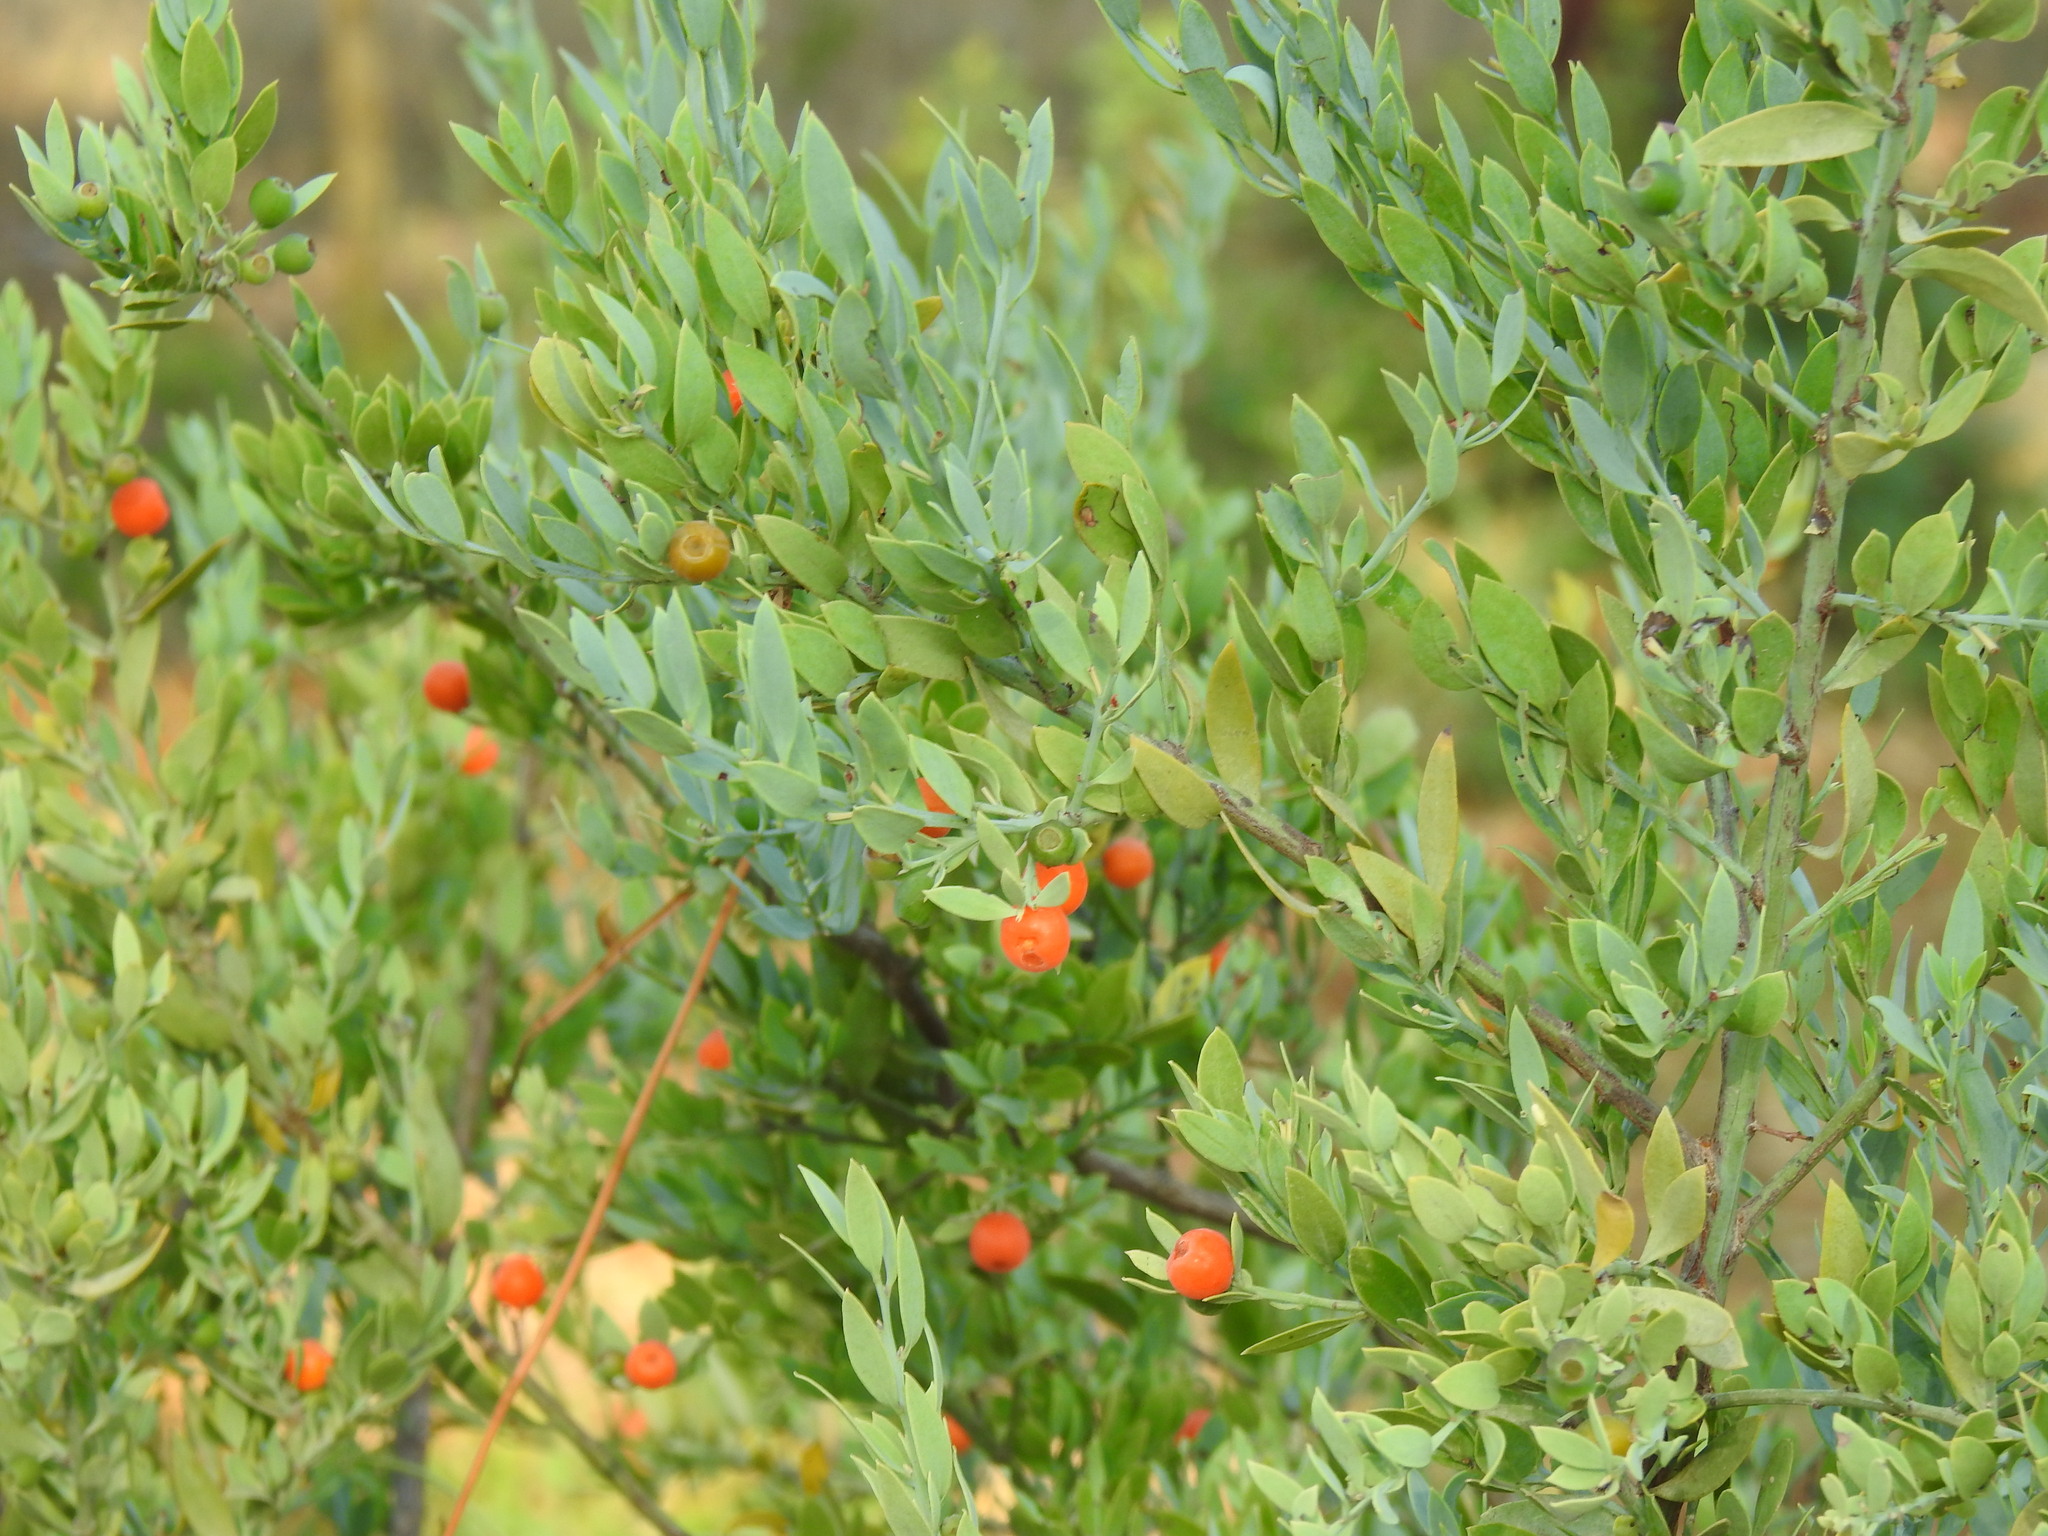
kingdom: Plantae
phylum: Tracheophyta
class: Magnoliopsida
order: Santalales
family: Santalaceae
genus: Osyris
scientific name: Osyris lanceolata
